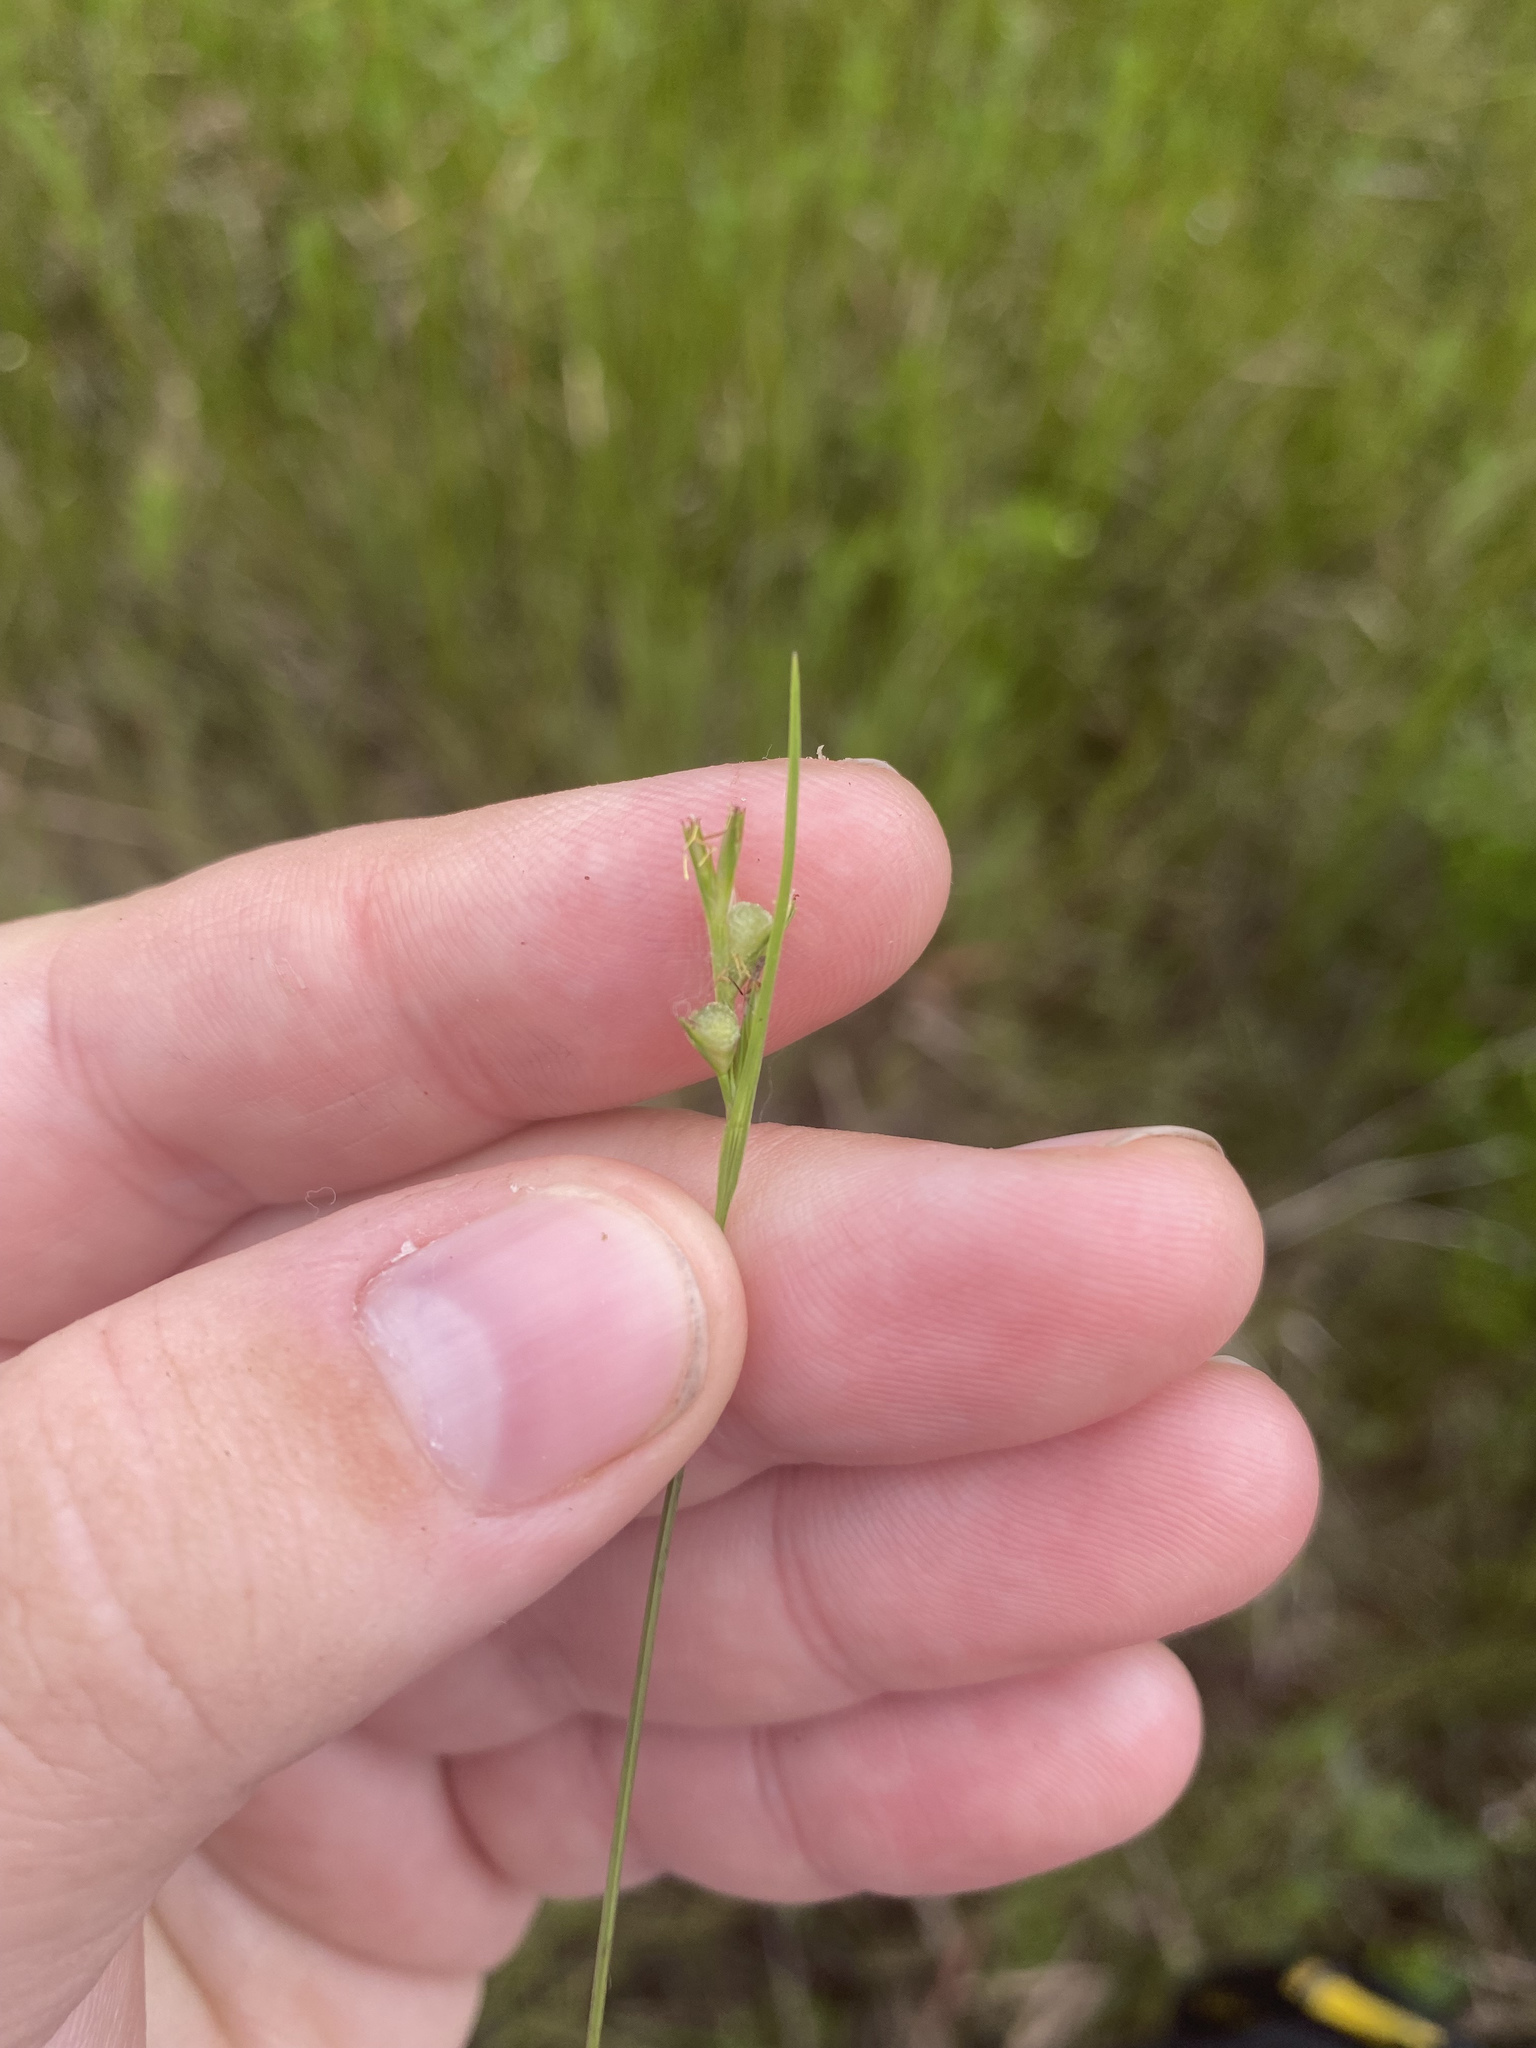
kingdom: Plantae
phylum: Tracheophyta
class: Liliopsida
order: Poales
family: Cyperaceae
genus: Scleria
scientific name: Scleria muehlenbergii
